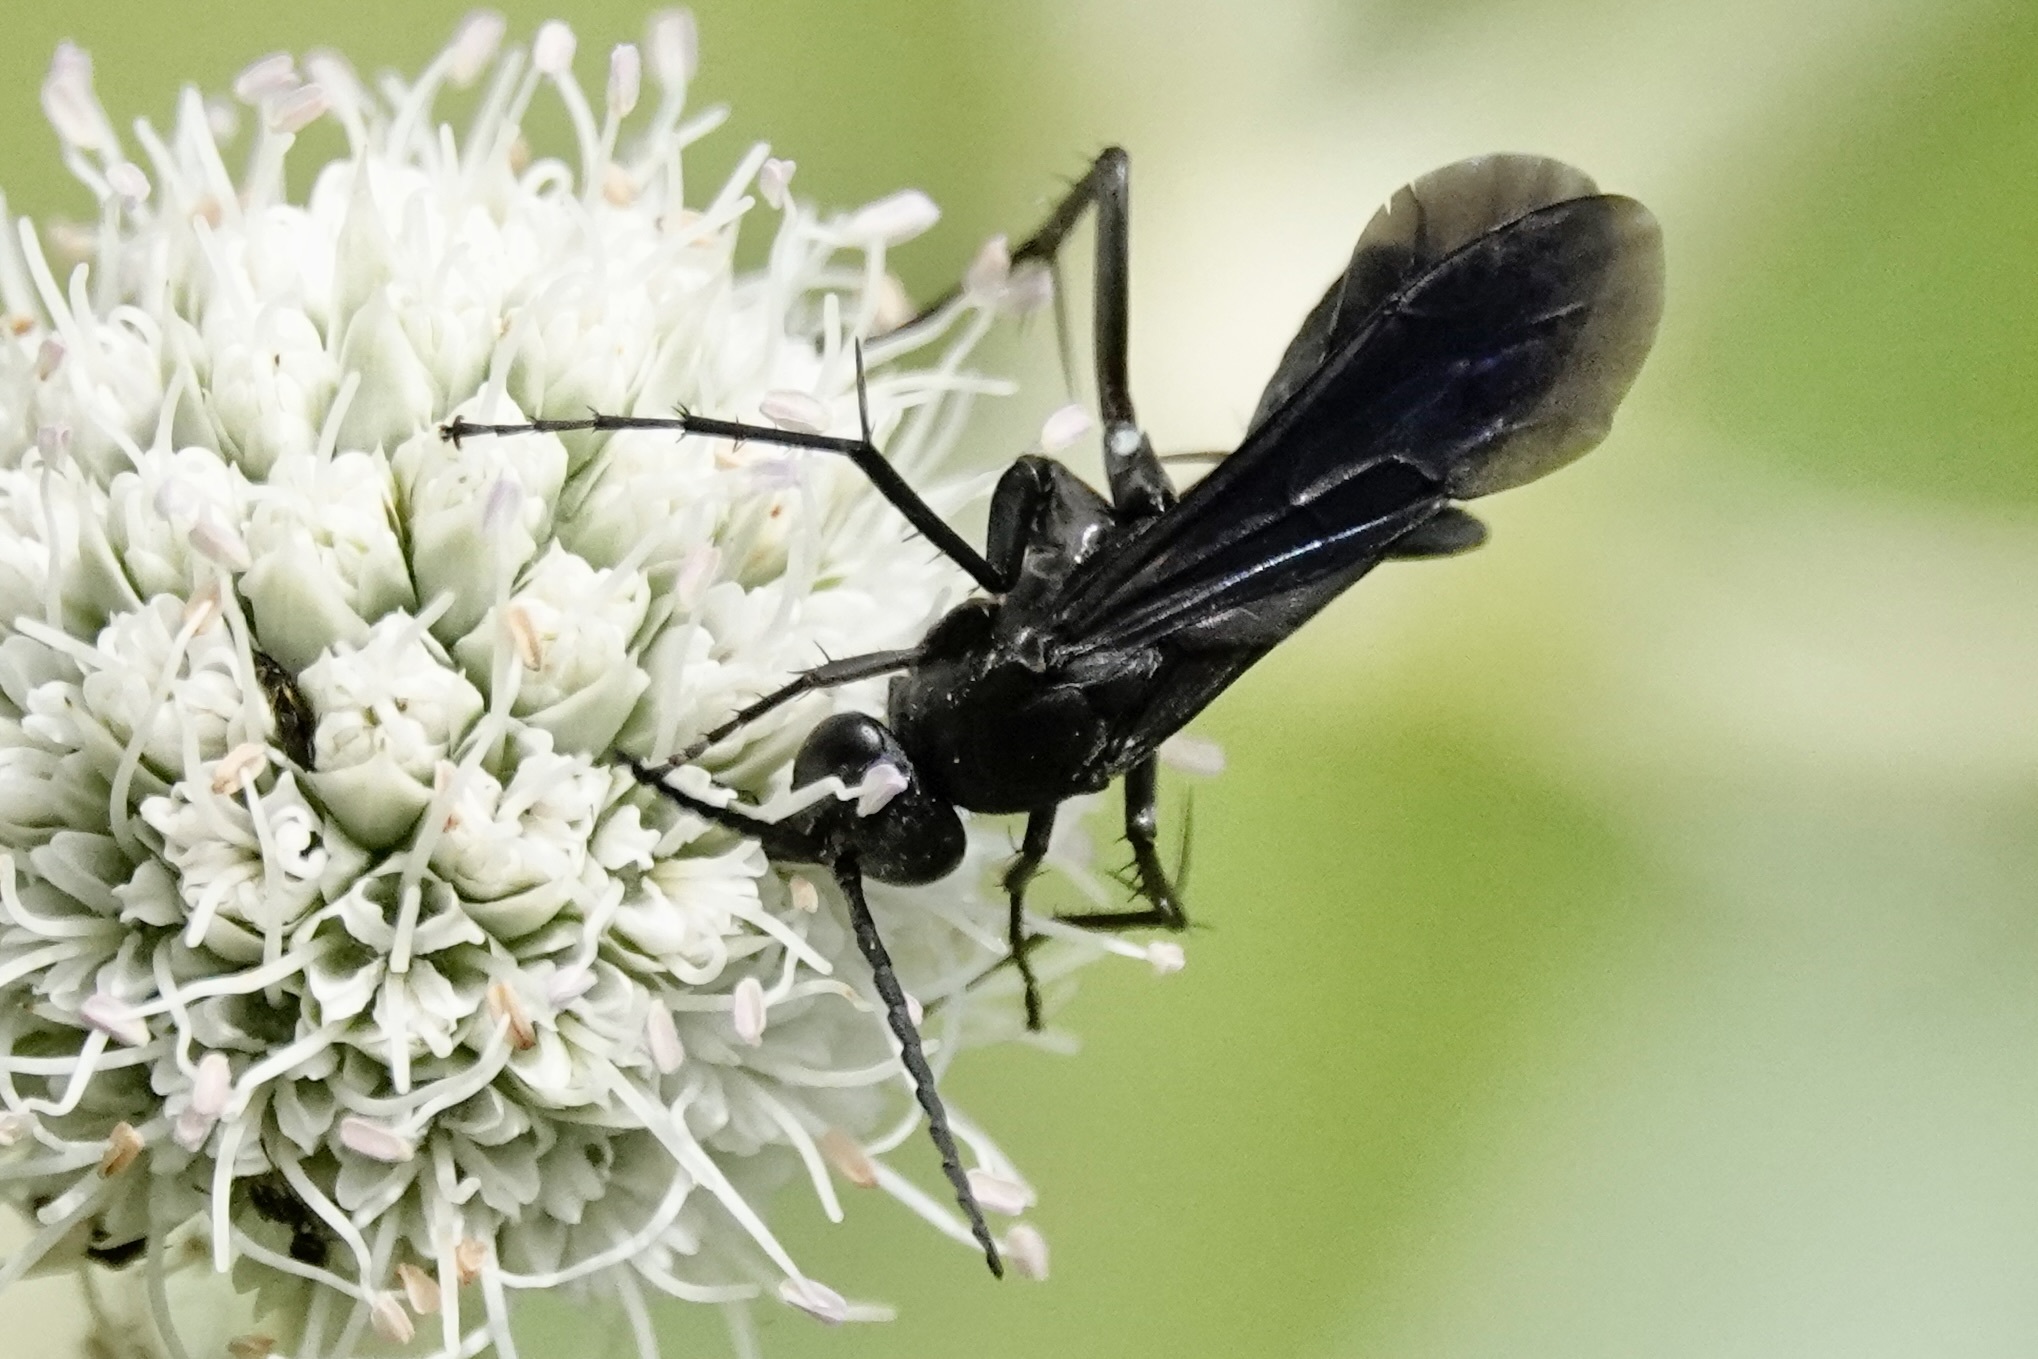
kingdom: Animalia
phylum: Arthropoda
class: Insecta
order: Hymenoptera
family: Pompilidae
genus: Paracyphononyx
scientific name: Paracyphononyx funereus
